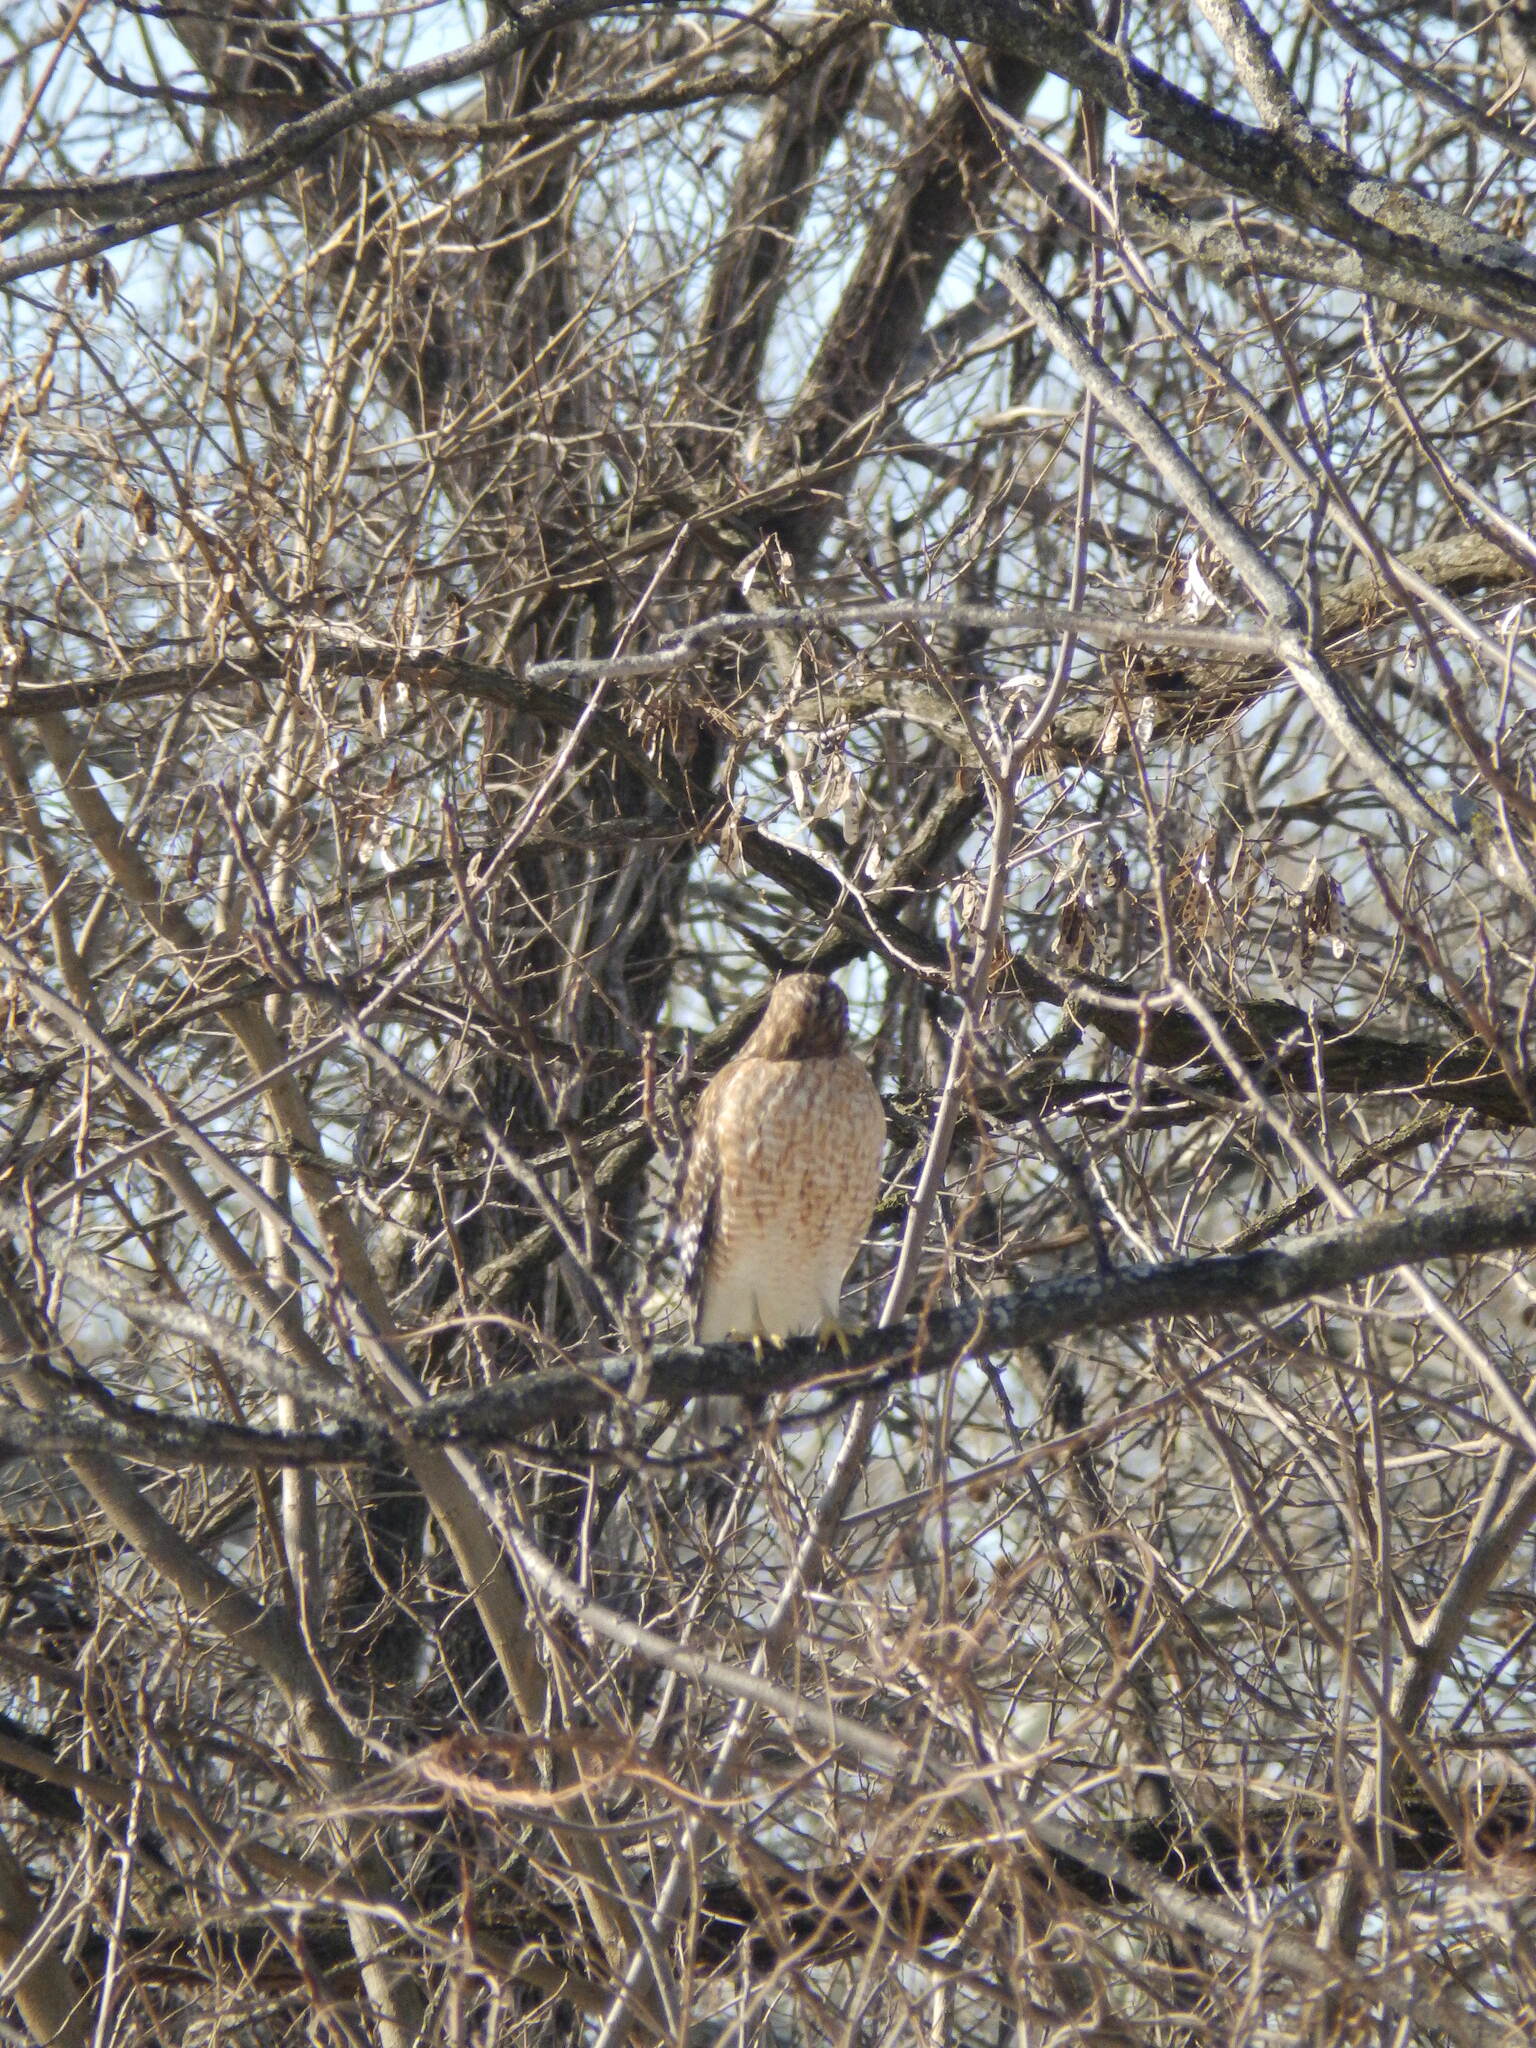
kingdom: Animalia
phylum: Chordata
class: Aves
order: Accipitriformes
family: Accipitridae
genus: Buteo
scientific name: Buteo lineatus
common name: Red-shouldered hawk
